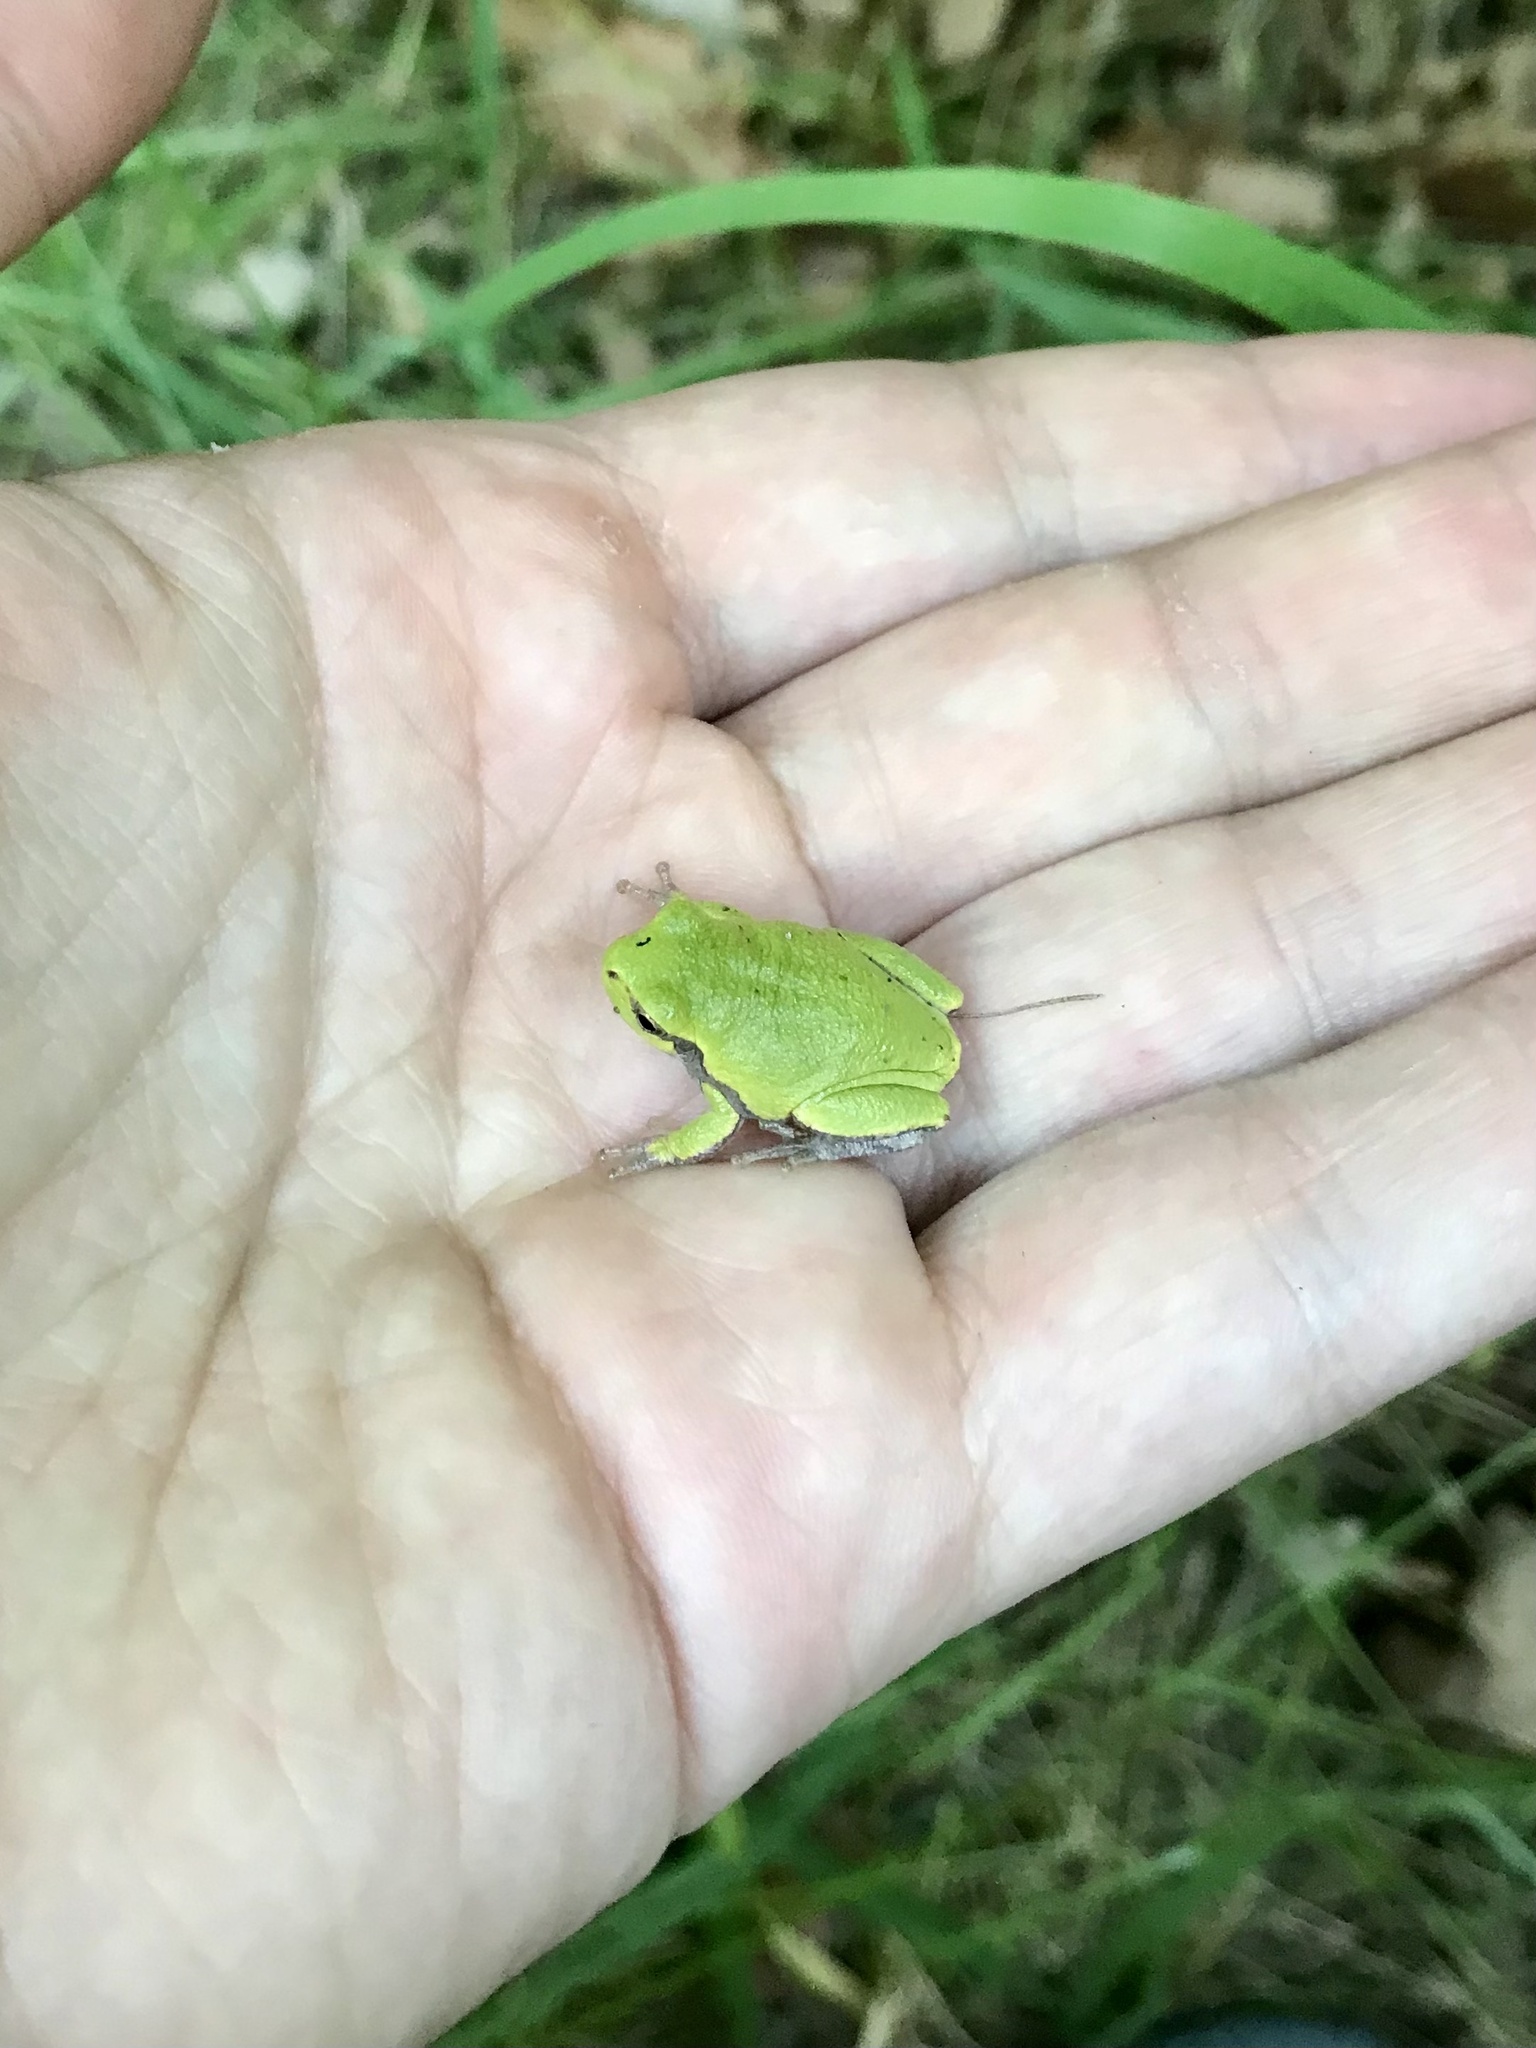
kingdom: Animalia
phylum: Chordata
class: Amphibia
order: Anura
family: Hylidae
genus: Hyla
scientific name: Hyla
